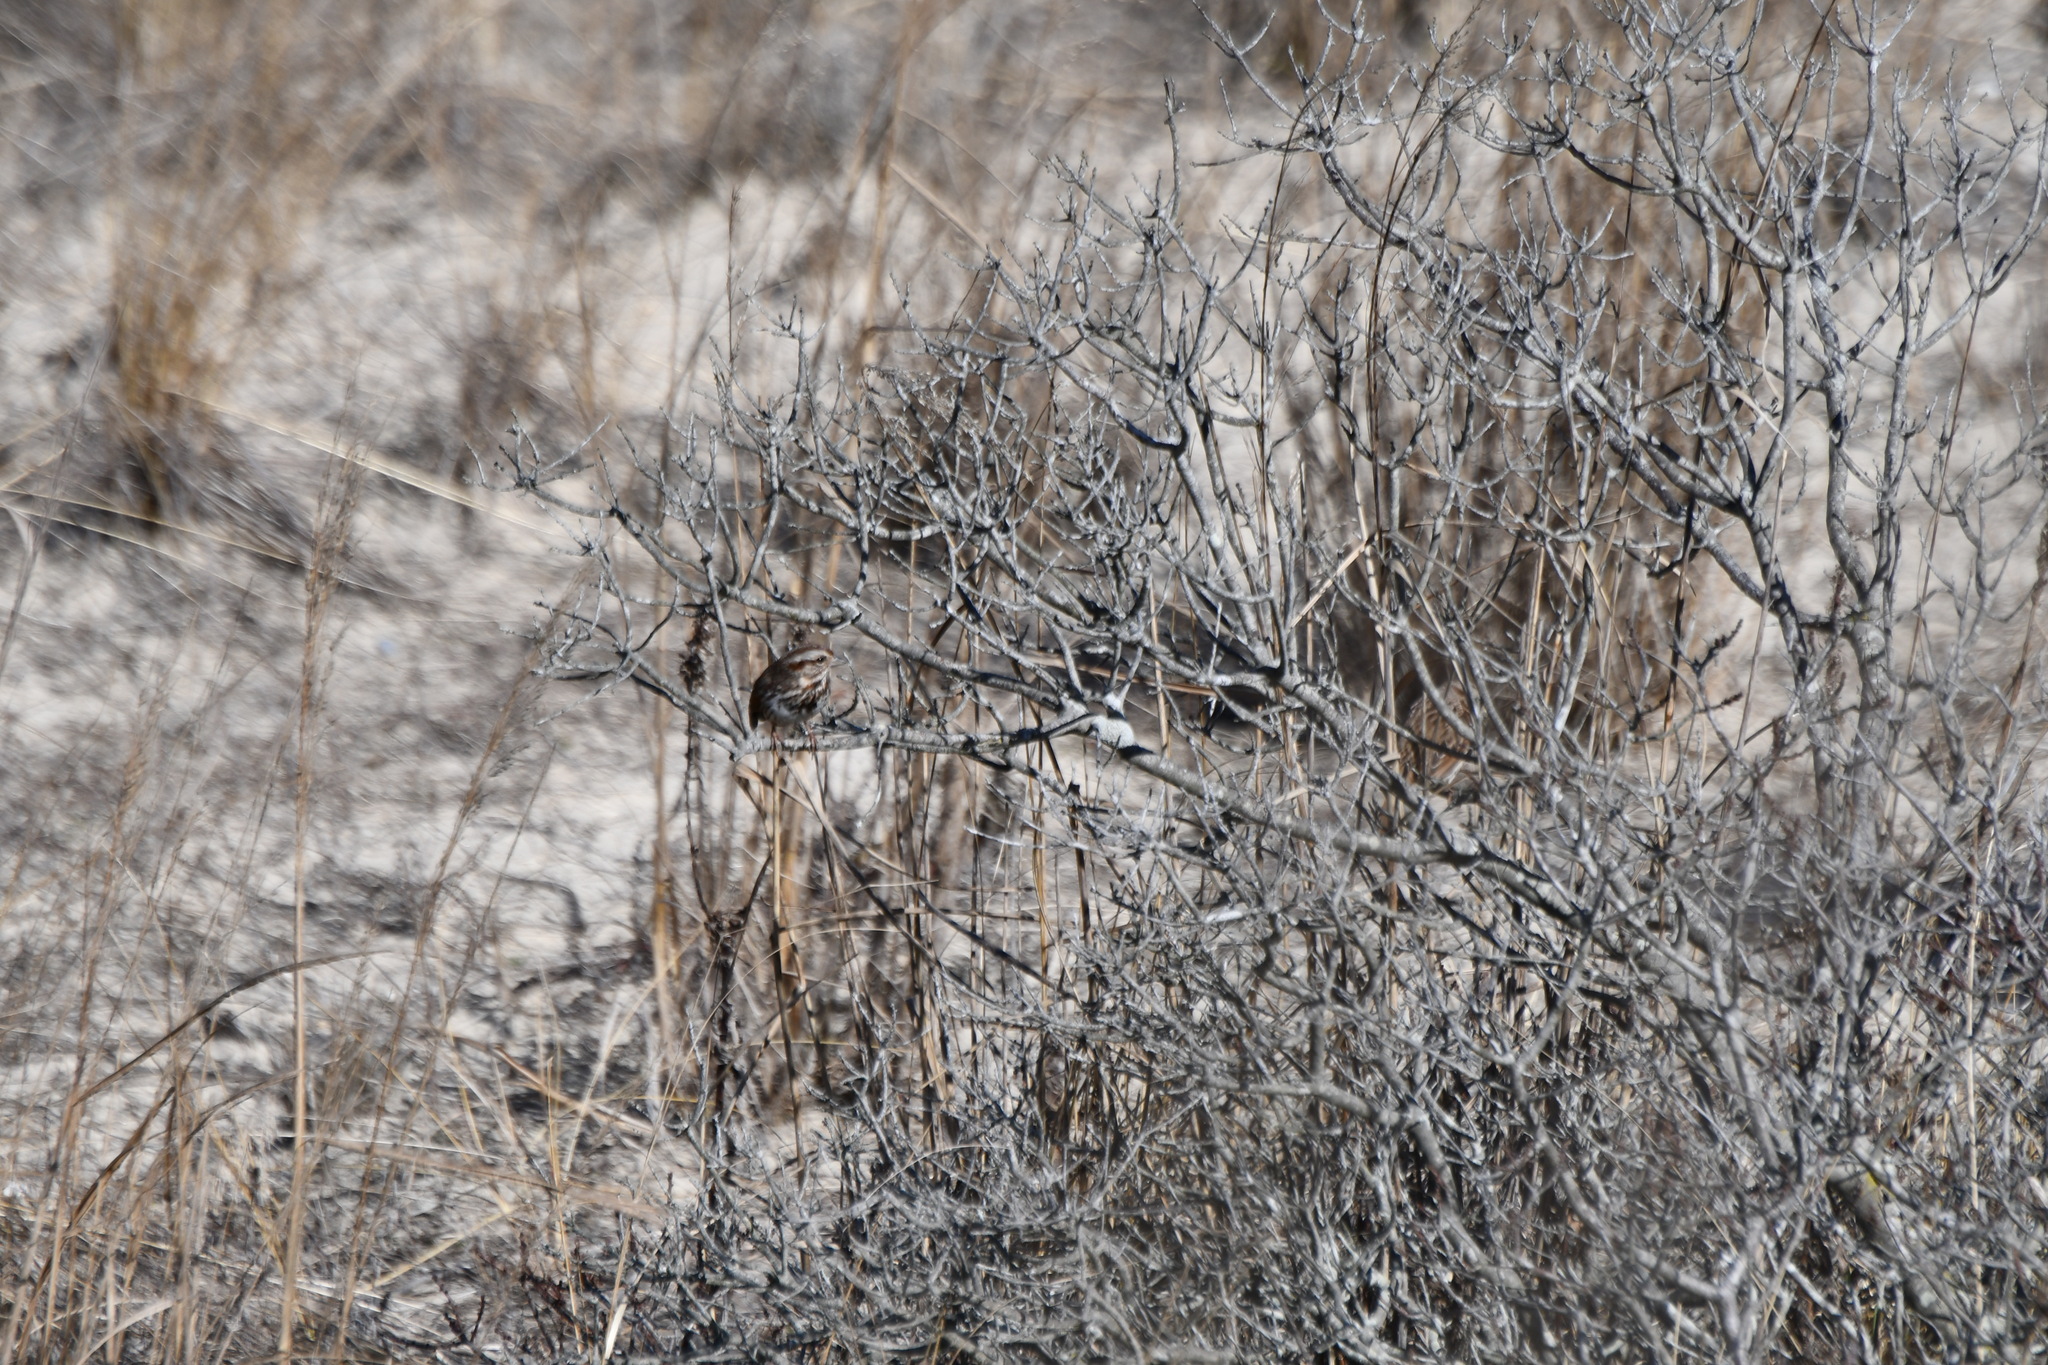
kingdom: Animalia
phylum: Chordata
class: Aves
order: Passeriformes
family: Passerellidae
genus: Melospiza
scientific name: Melospiza melodia
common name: Song sparrow
